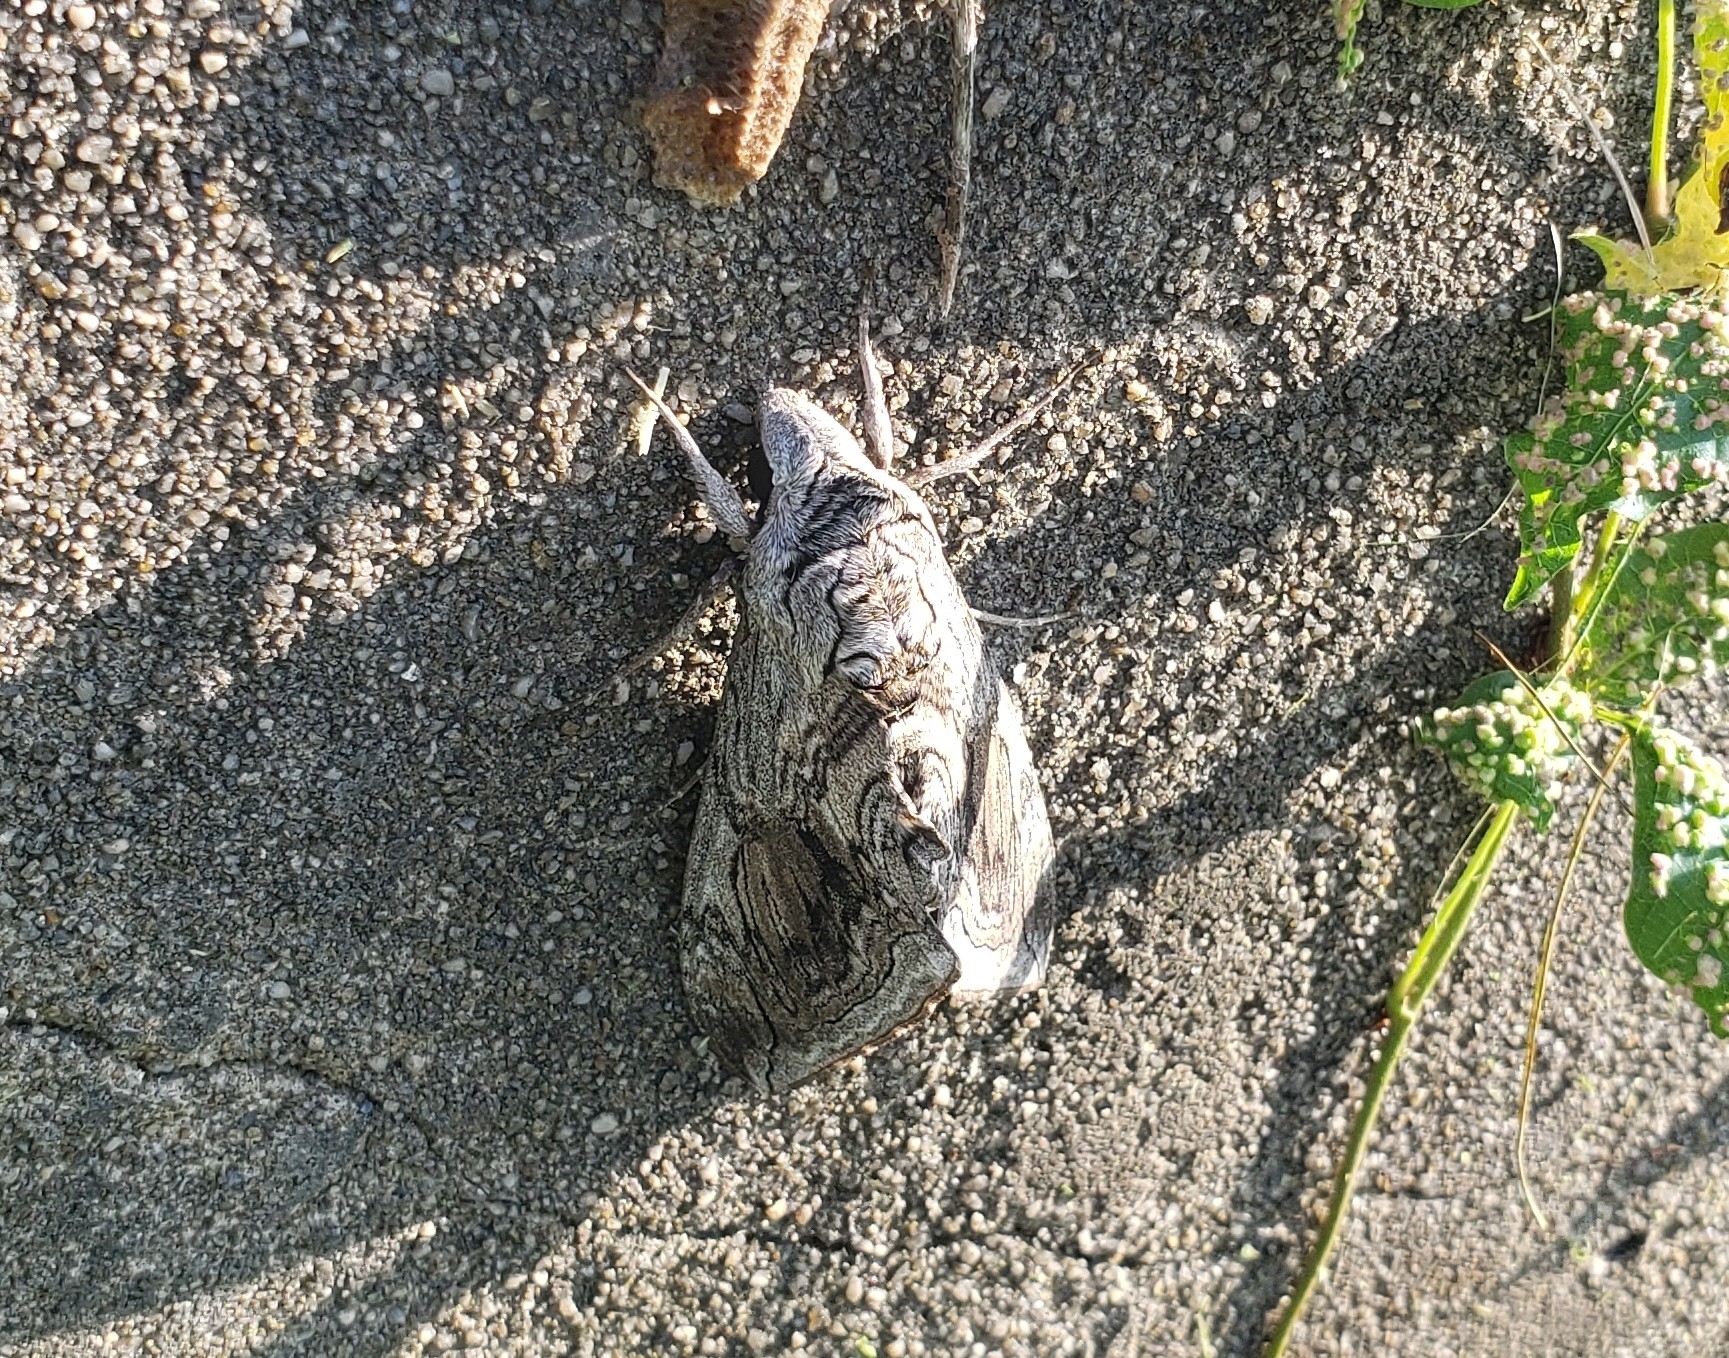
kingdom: Animalia
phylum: Arthropoda
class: Insecta
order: Lepidoptera
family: Sphingidae
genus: Manduca
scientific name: Manduca quinquemaculatus
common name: Five-spotted hawk-moth
